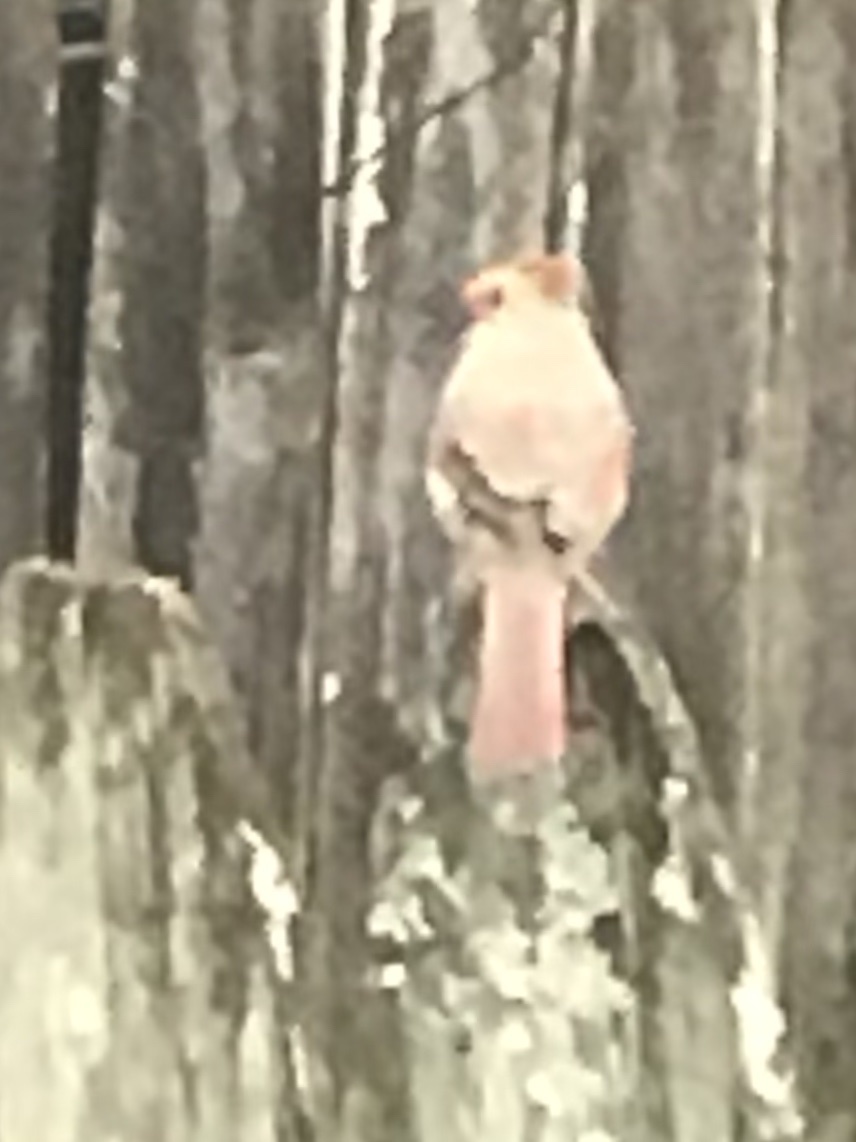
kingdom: Animalia
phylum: Chordata
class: Aves
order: Passeriformes
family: Cardinalidae
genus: Cardinalis
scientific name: Cardinalis cardinalis
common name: Northern cardinal
